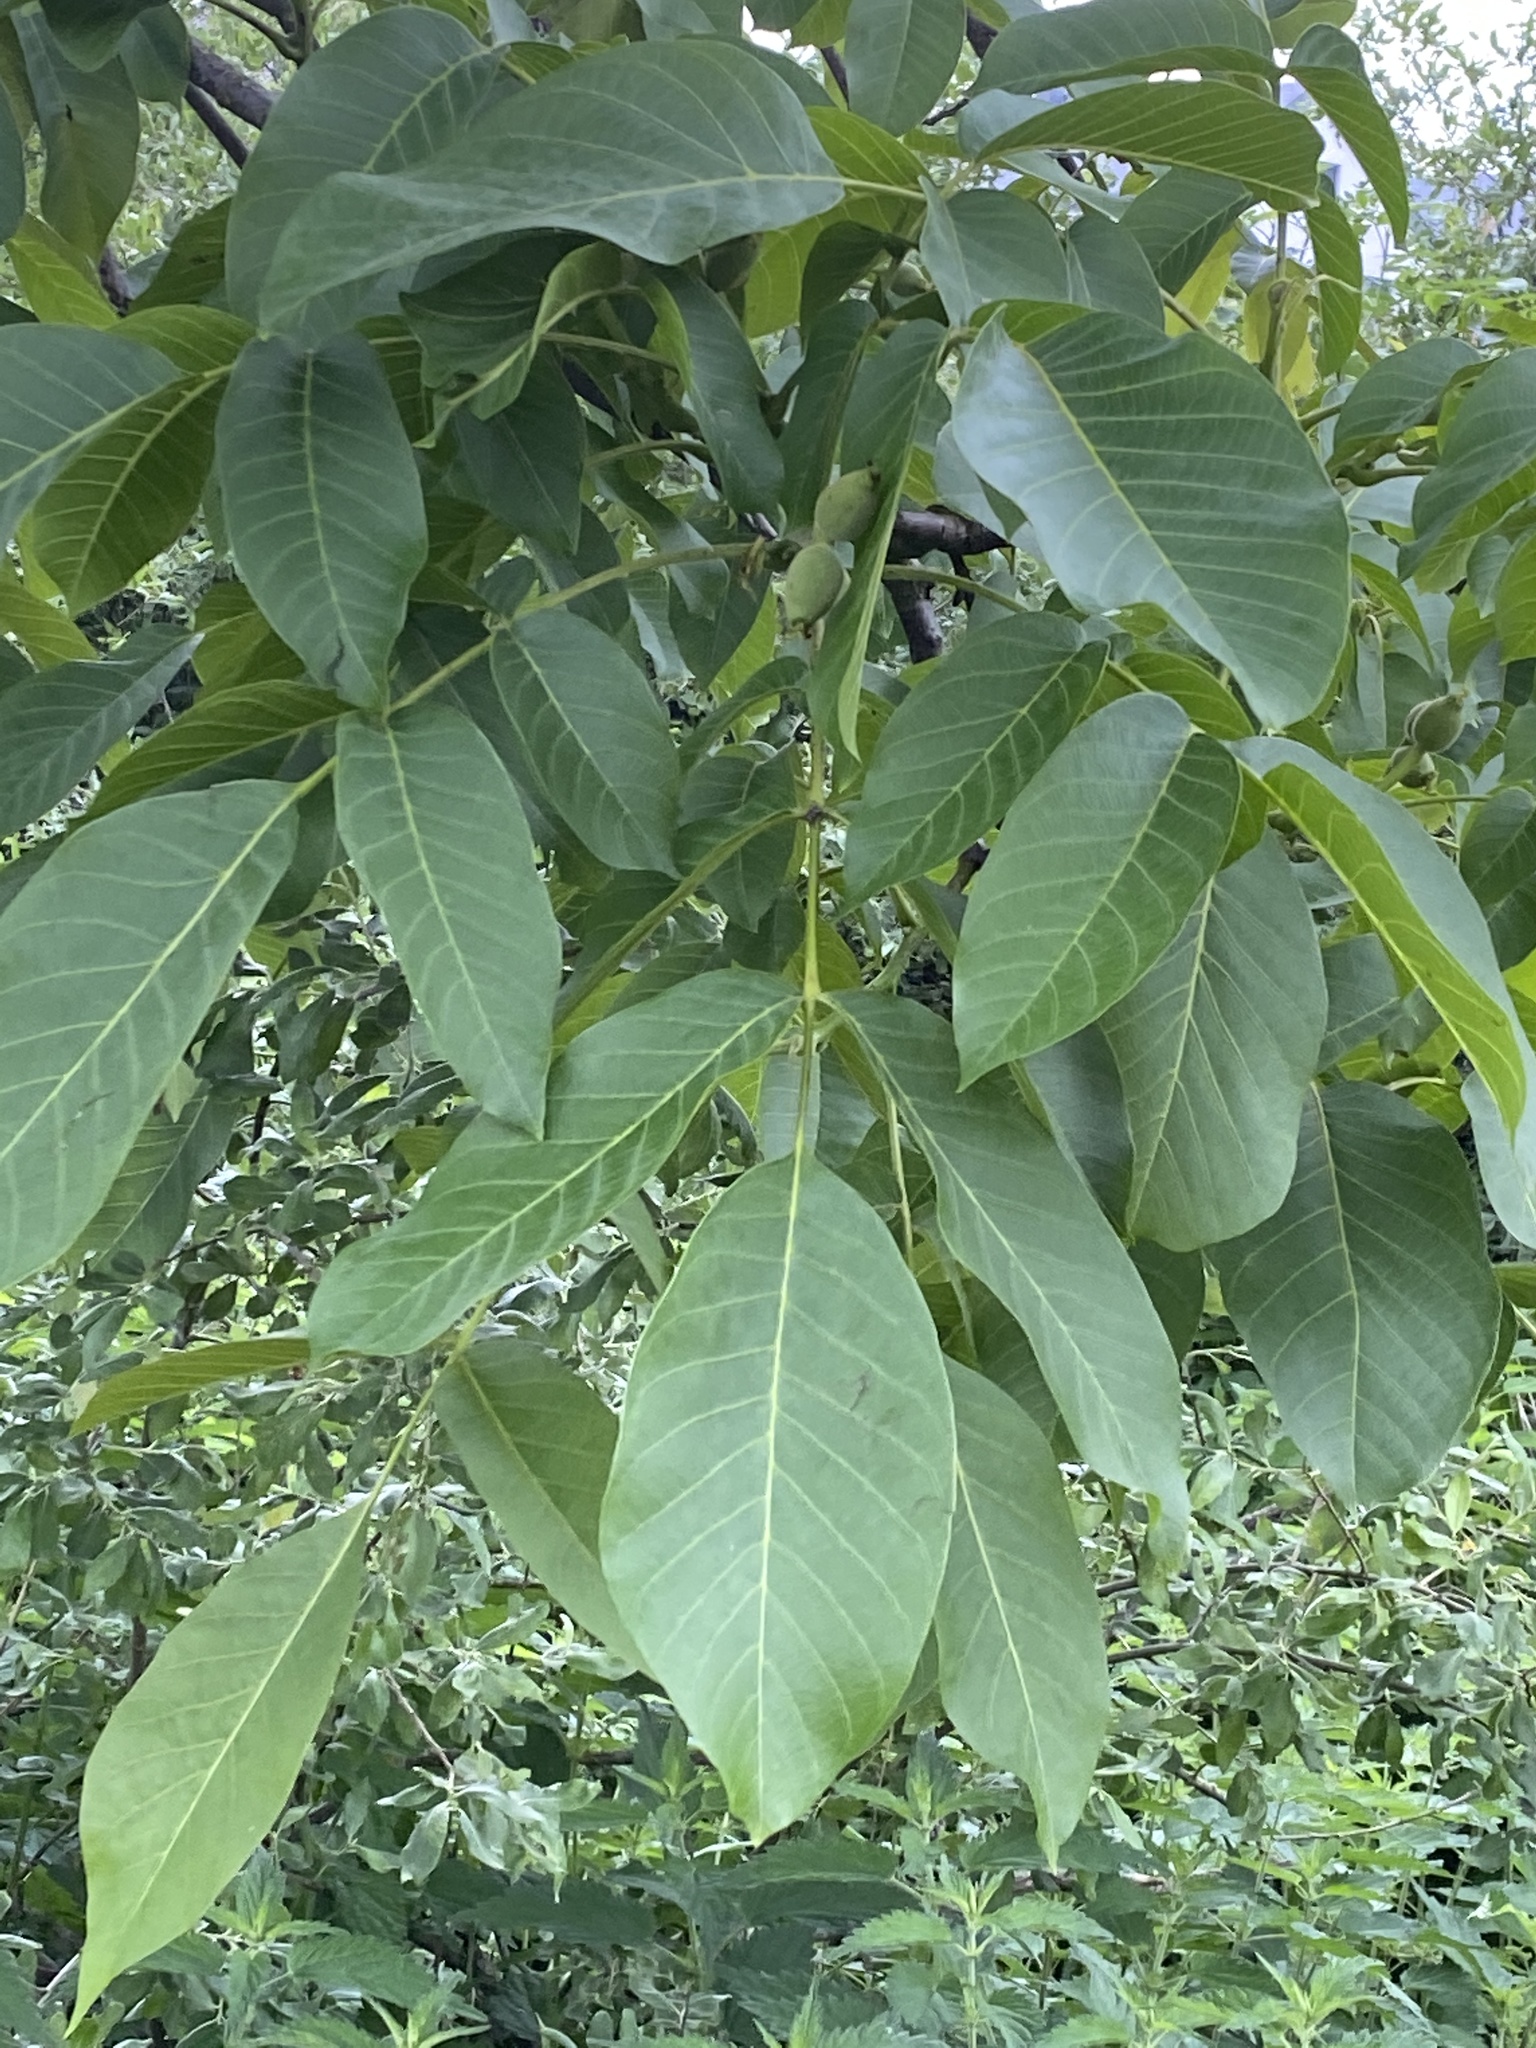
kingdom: Plantae
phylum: Tracheophyta
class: Magnoliopsida
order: Fagales
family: Juglandaceae
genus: Juglans
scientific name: Juglans regia
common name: Walnut
